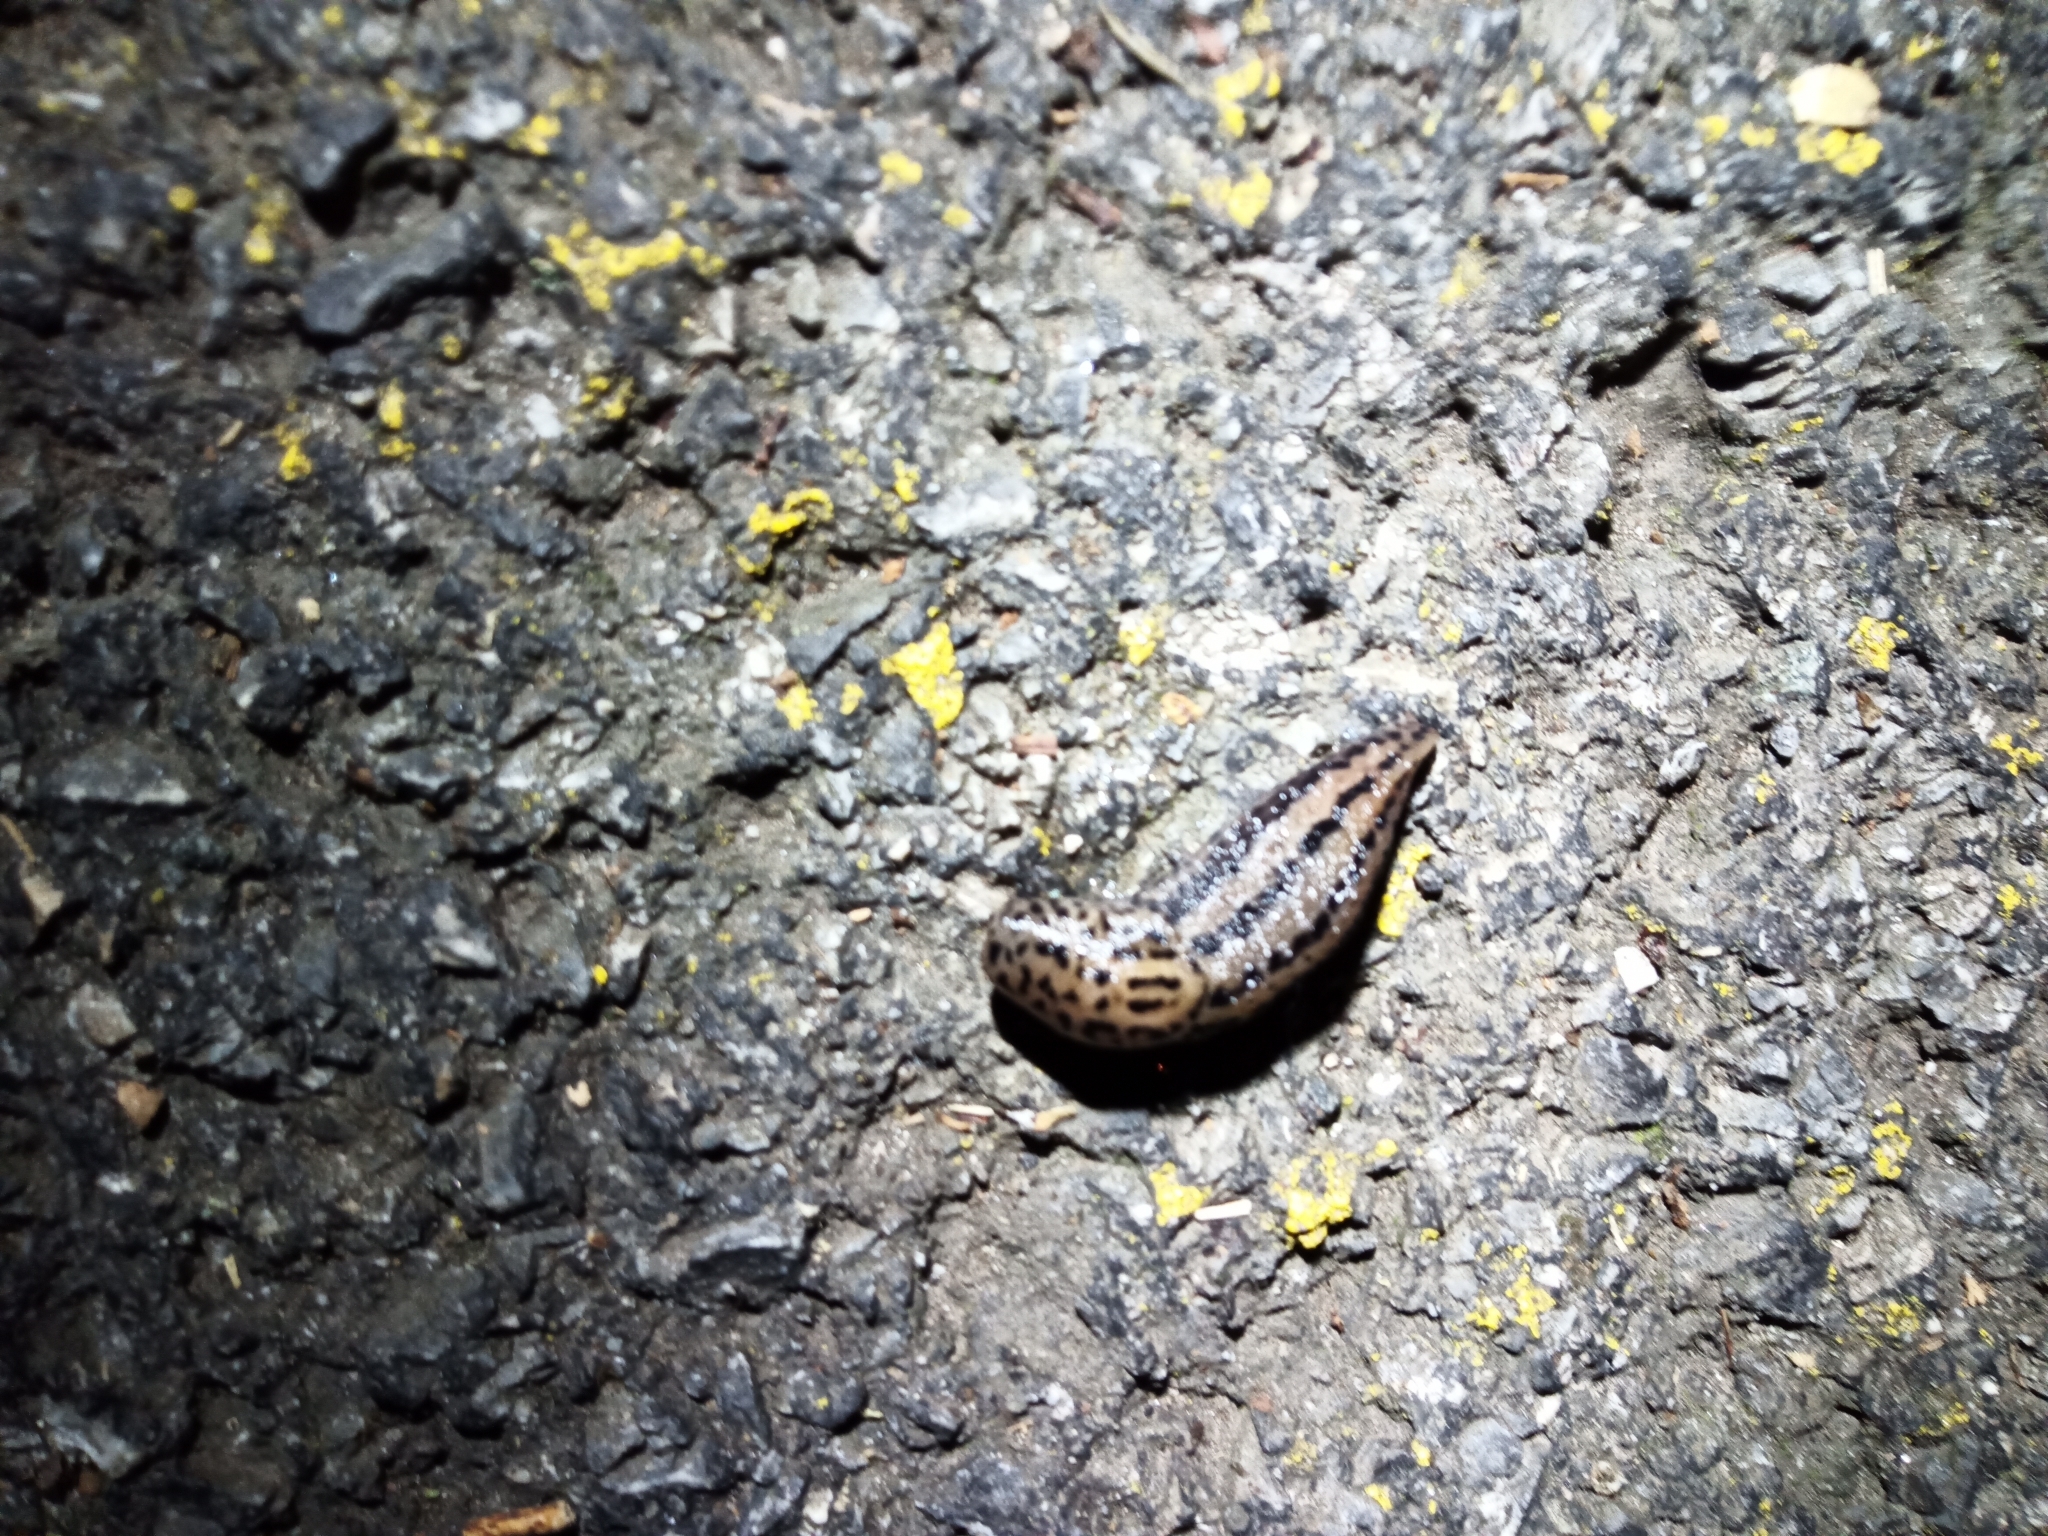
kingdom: Animalia
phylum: Mollusca
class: Gastropoda
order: Stylommatophora
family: Limacidae
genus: Limax
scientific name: Limax maximus
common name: Great grey slug
